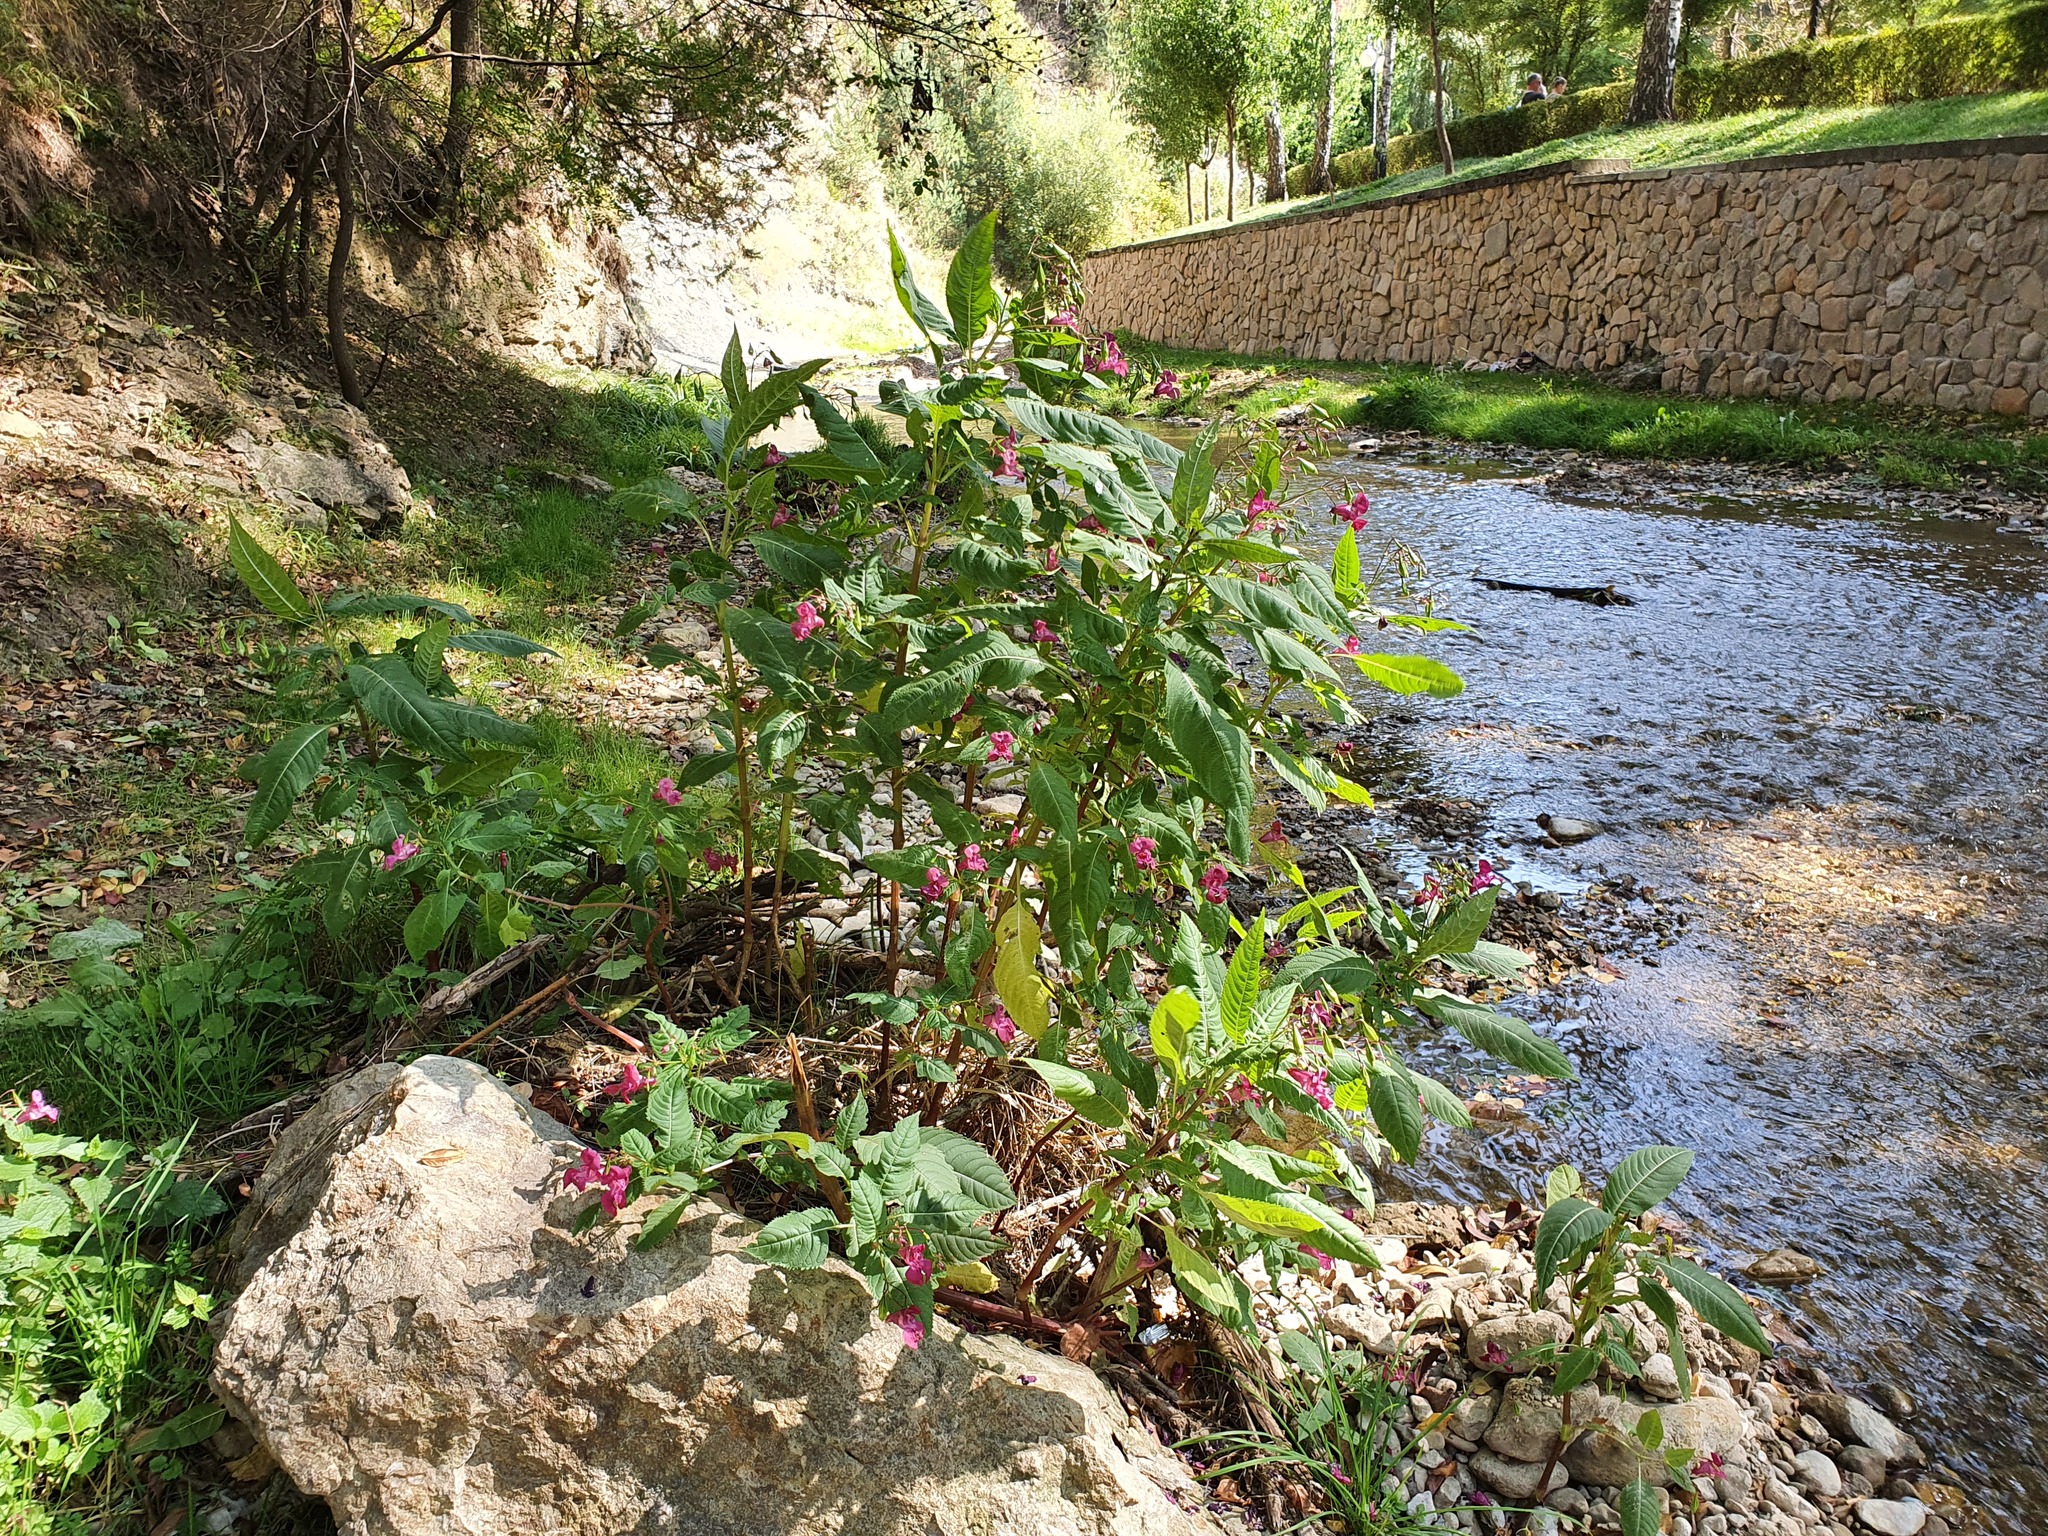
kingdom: Plantae
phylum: Tracheophyta
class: Magnoliopsida
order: Ericales
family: Balsaminaceae
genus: Impatiens
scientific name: Impatiens glandulifera
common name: Himalayan balsam
